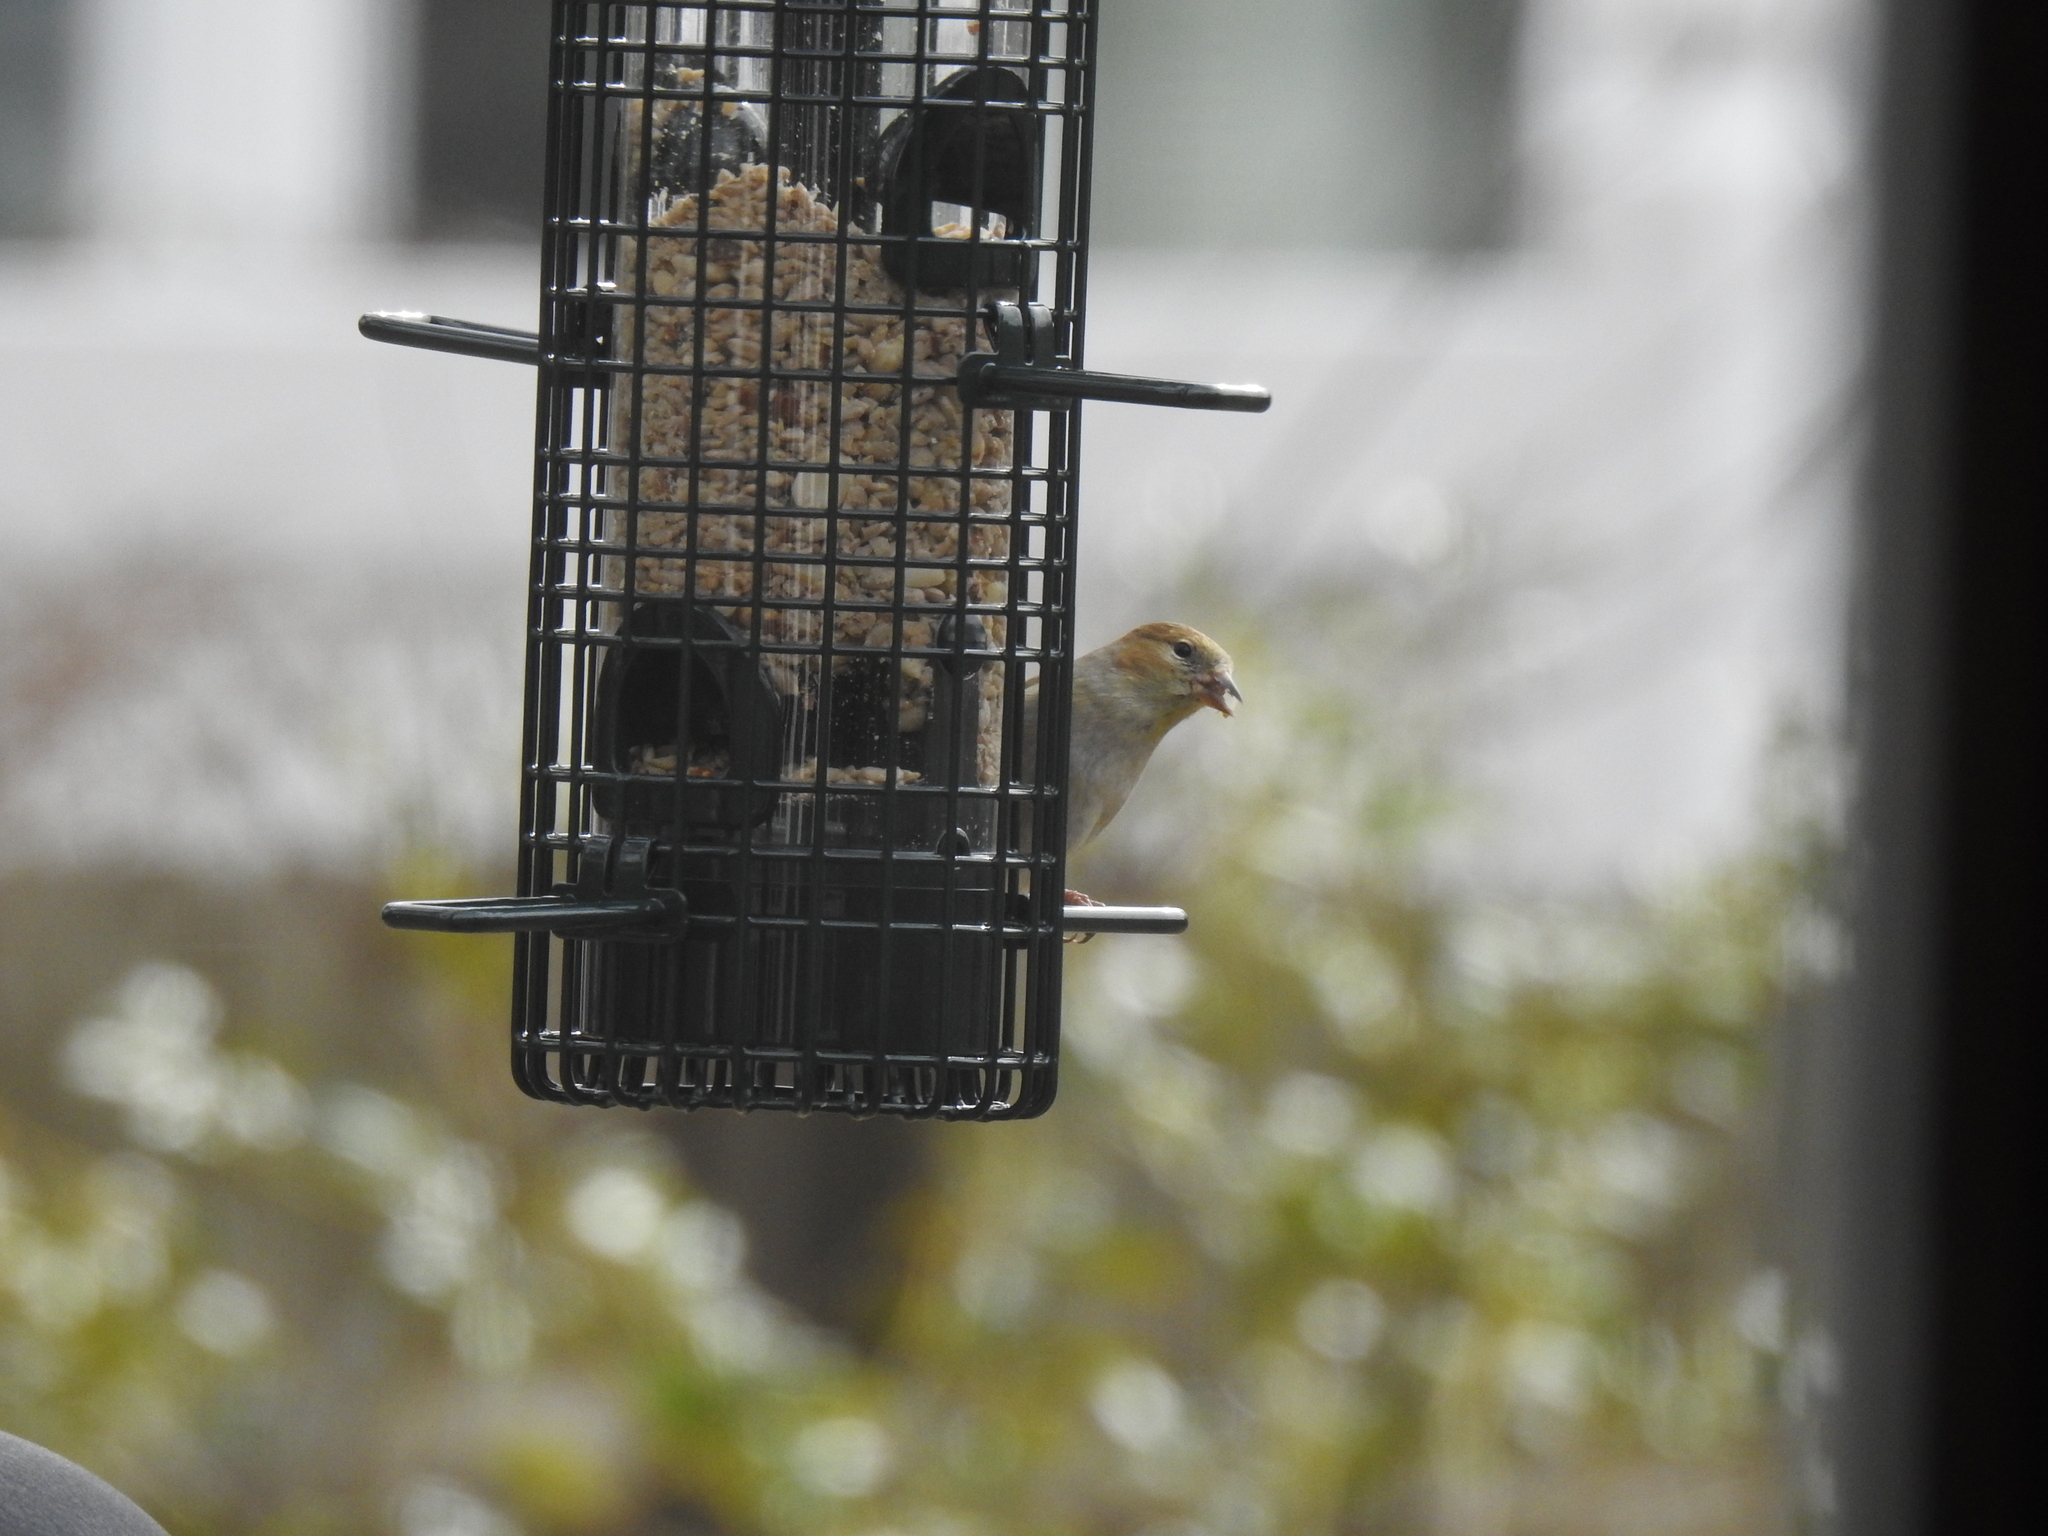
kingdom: Animalia
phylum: Chordata
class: Aves
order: Passeriformes
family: Fringillidae
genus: Spinus
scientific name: Spinus tristis
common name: American goldfinch
